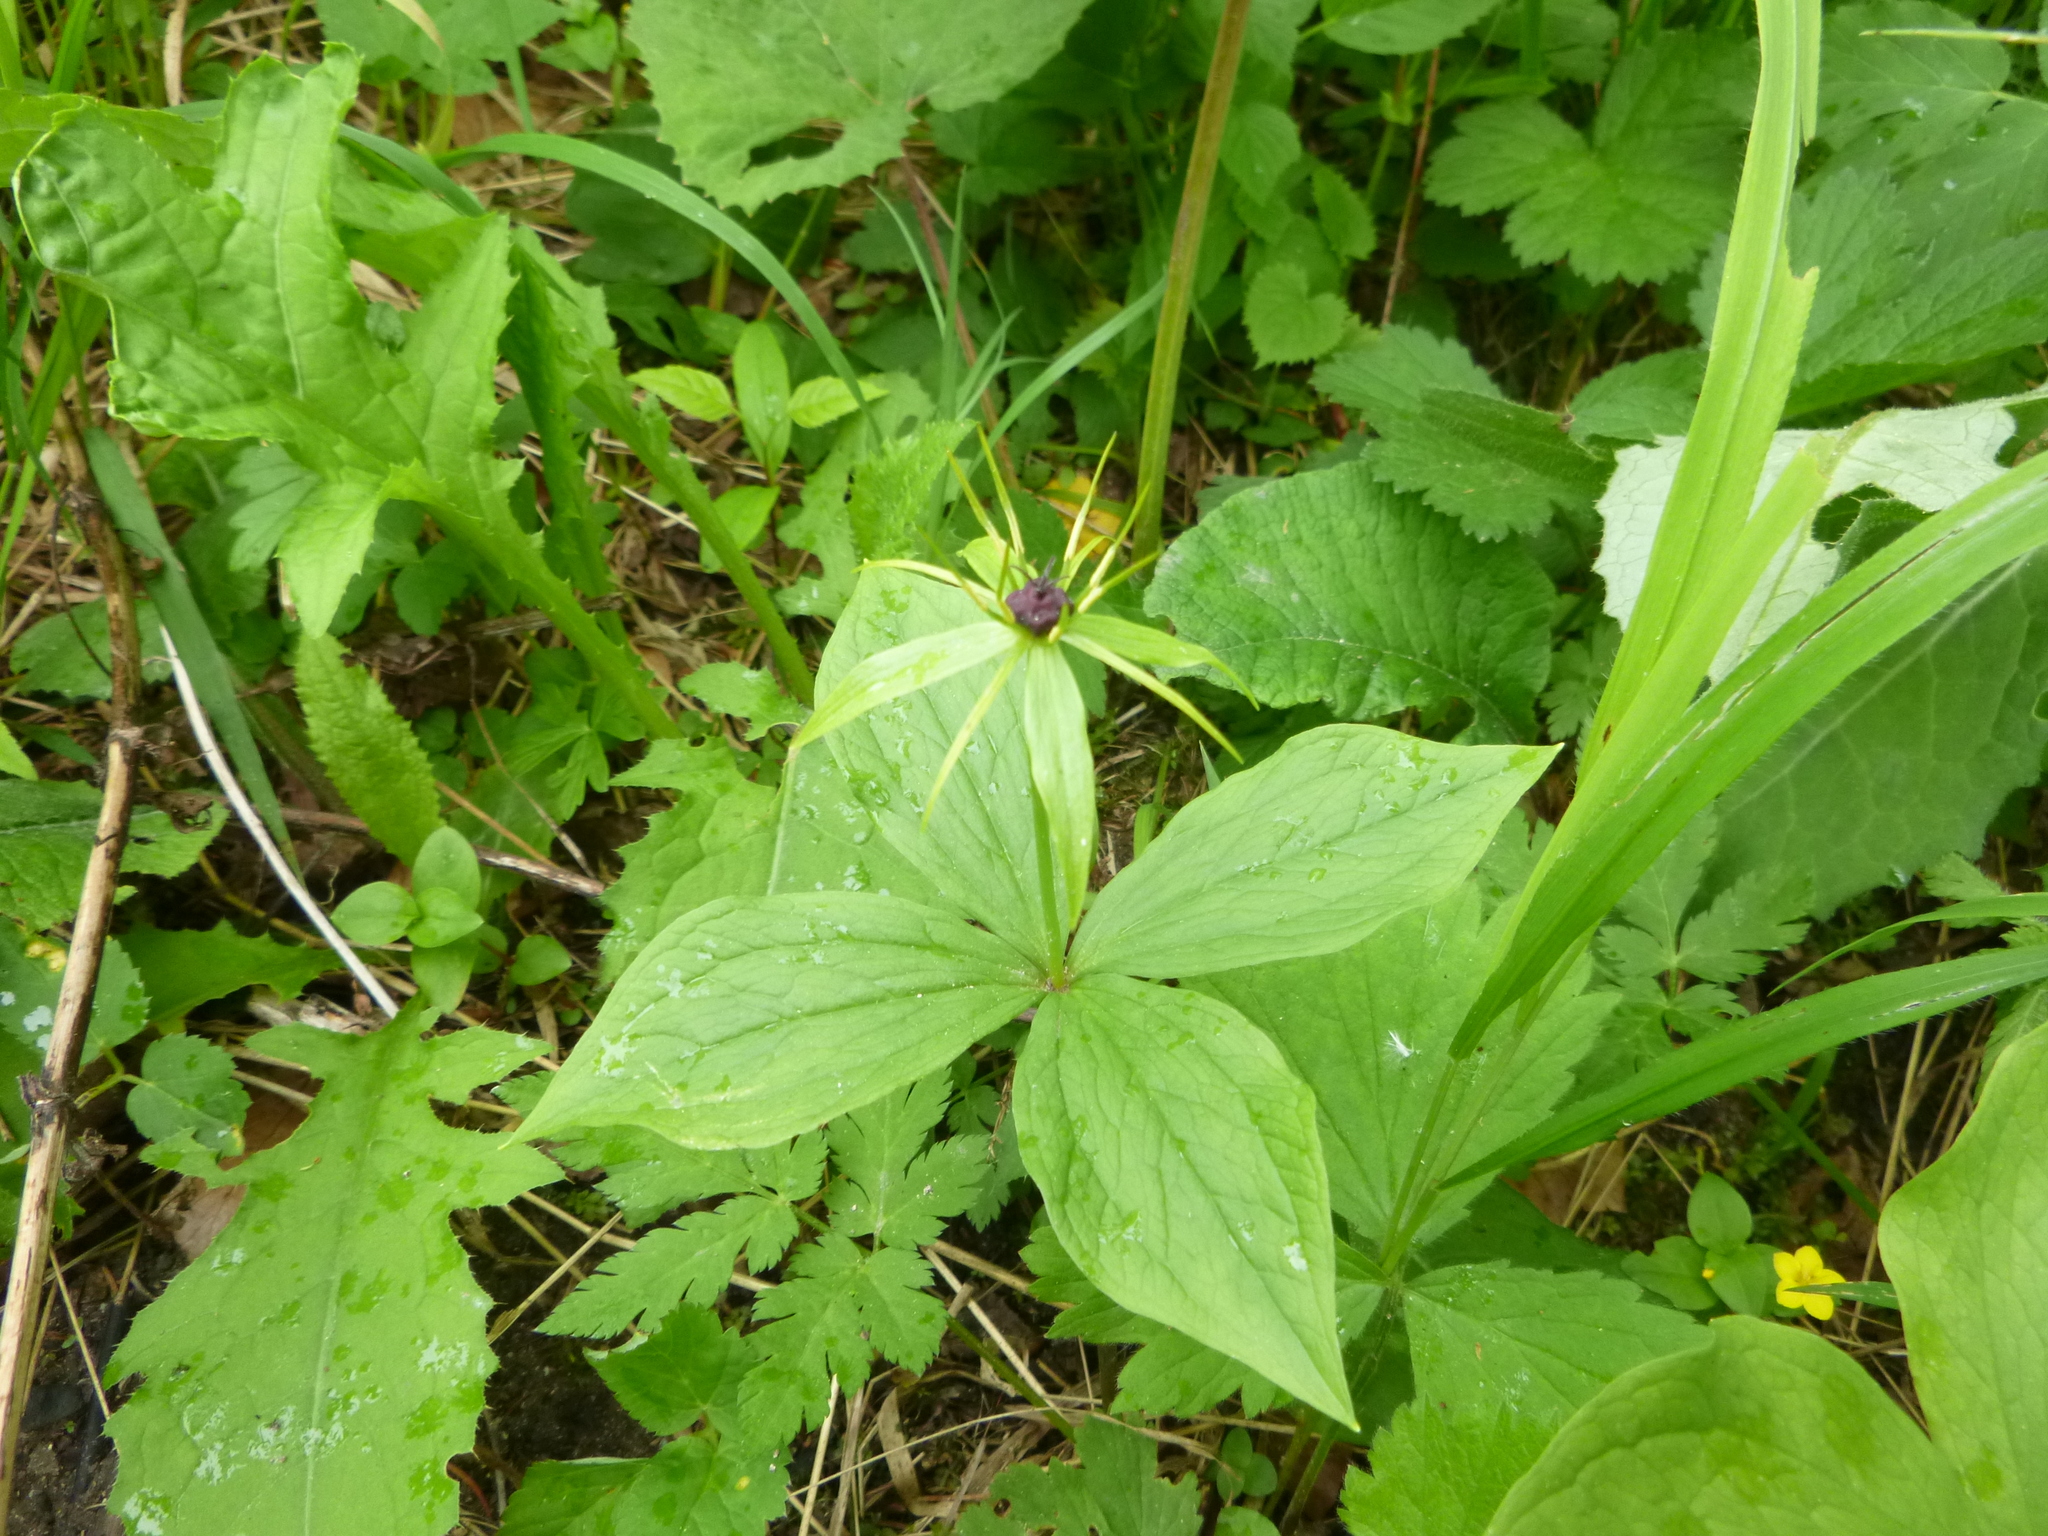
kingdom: Plantae
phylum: Tracheophyta
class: Liliopsida
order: Liliales
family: Melanthiaceae
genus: Paris
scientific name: Paris quadrifolia
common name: Herb-paris
